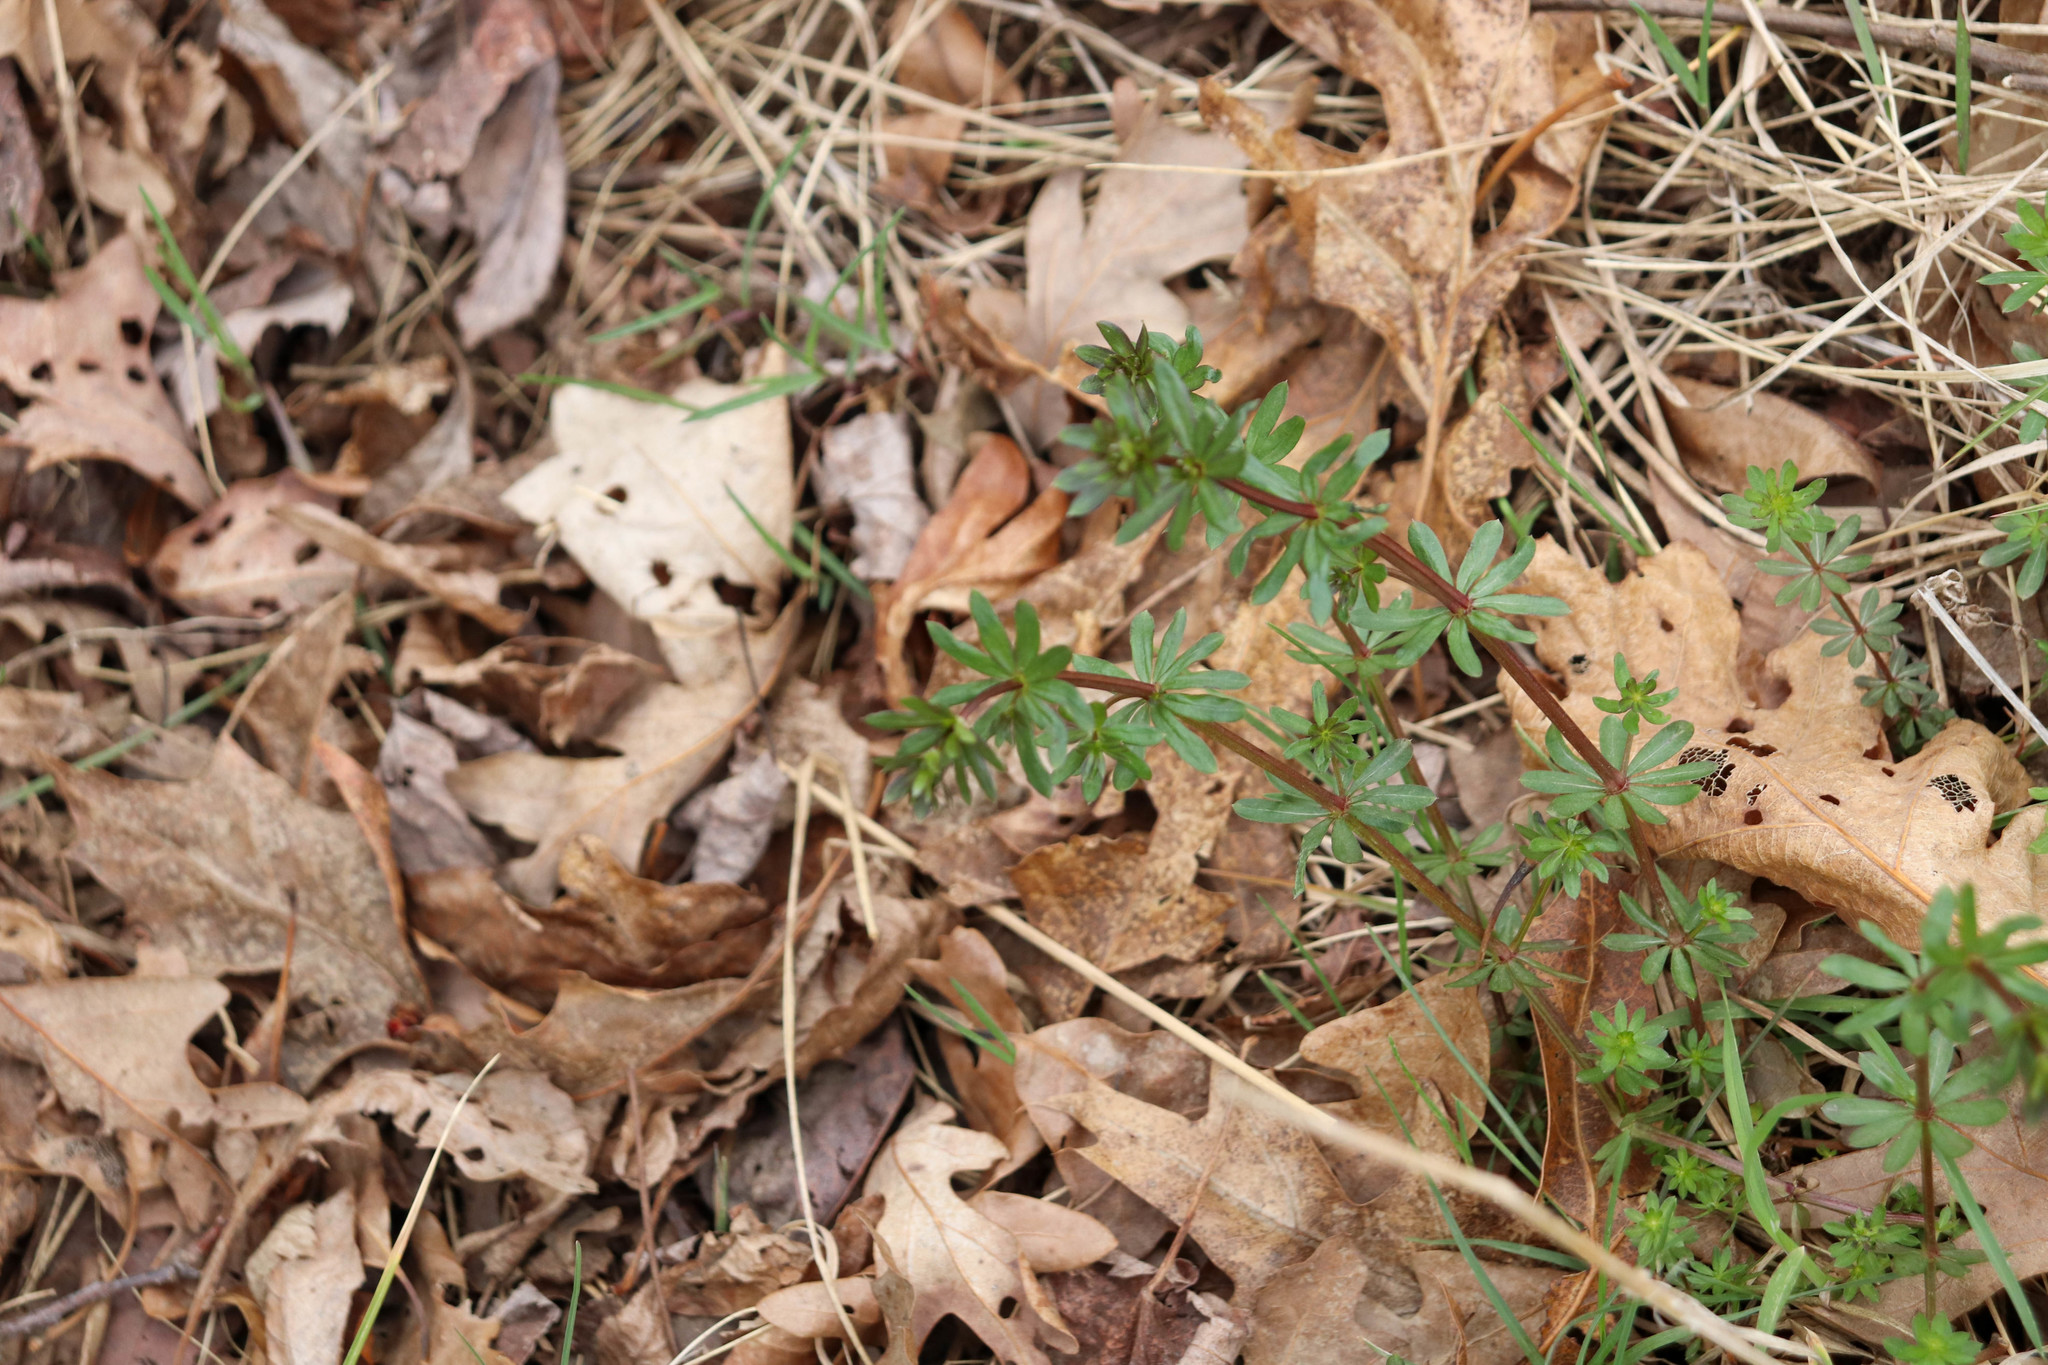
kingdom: Plantae
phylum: Tracheophyta
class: Magnoliopsida
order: Gentianales
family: Rubiaceae
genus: Galium
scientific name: Galium mollugo
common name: Hedge bedstraw
